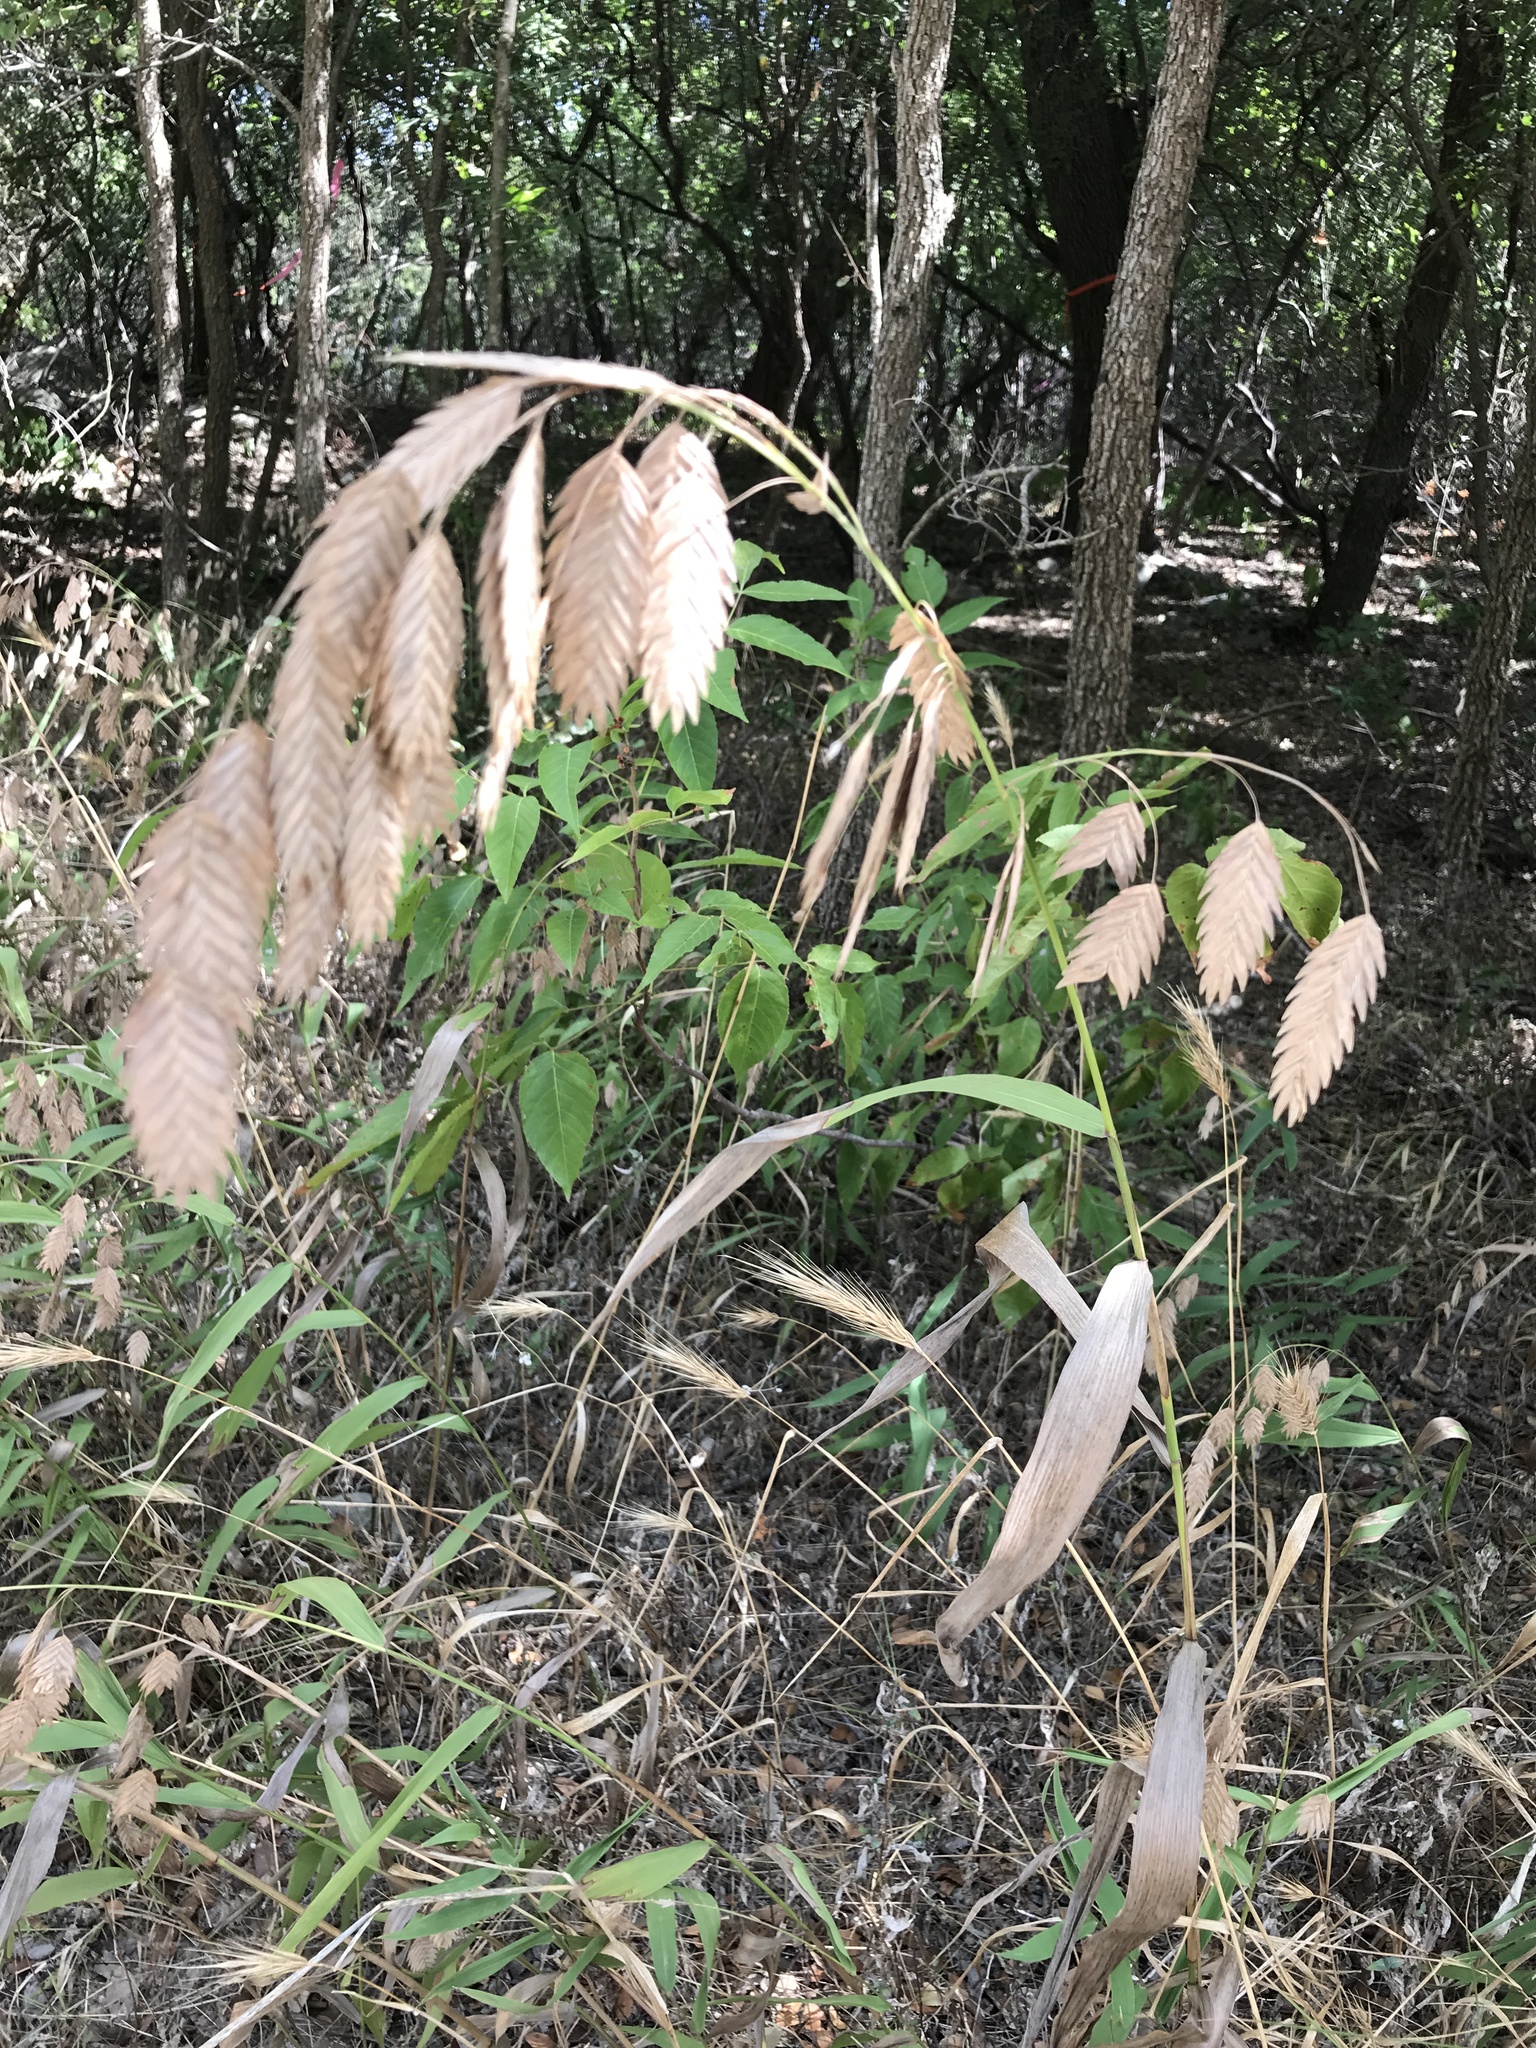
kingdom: Plantae
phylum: Tracheophyta
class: Liliopsida
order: Poales
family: Poaceae
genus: Chasmanthium
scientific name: Chasmanthium latifolium
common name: Broad-leaved chasmanthium
